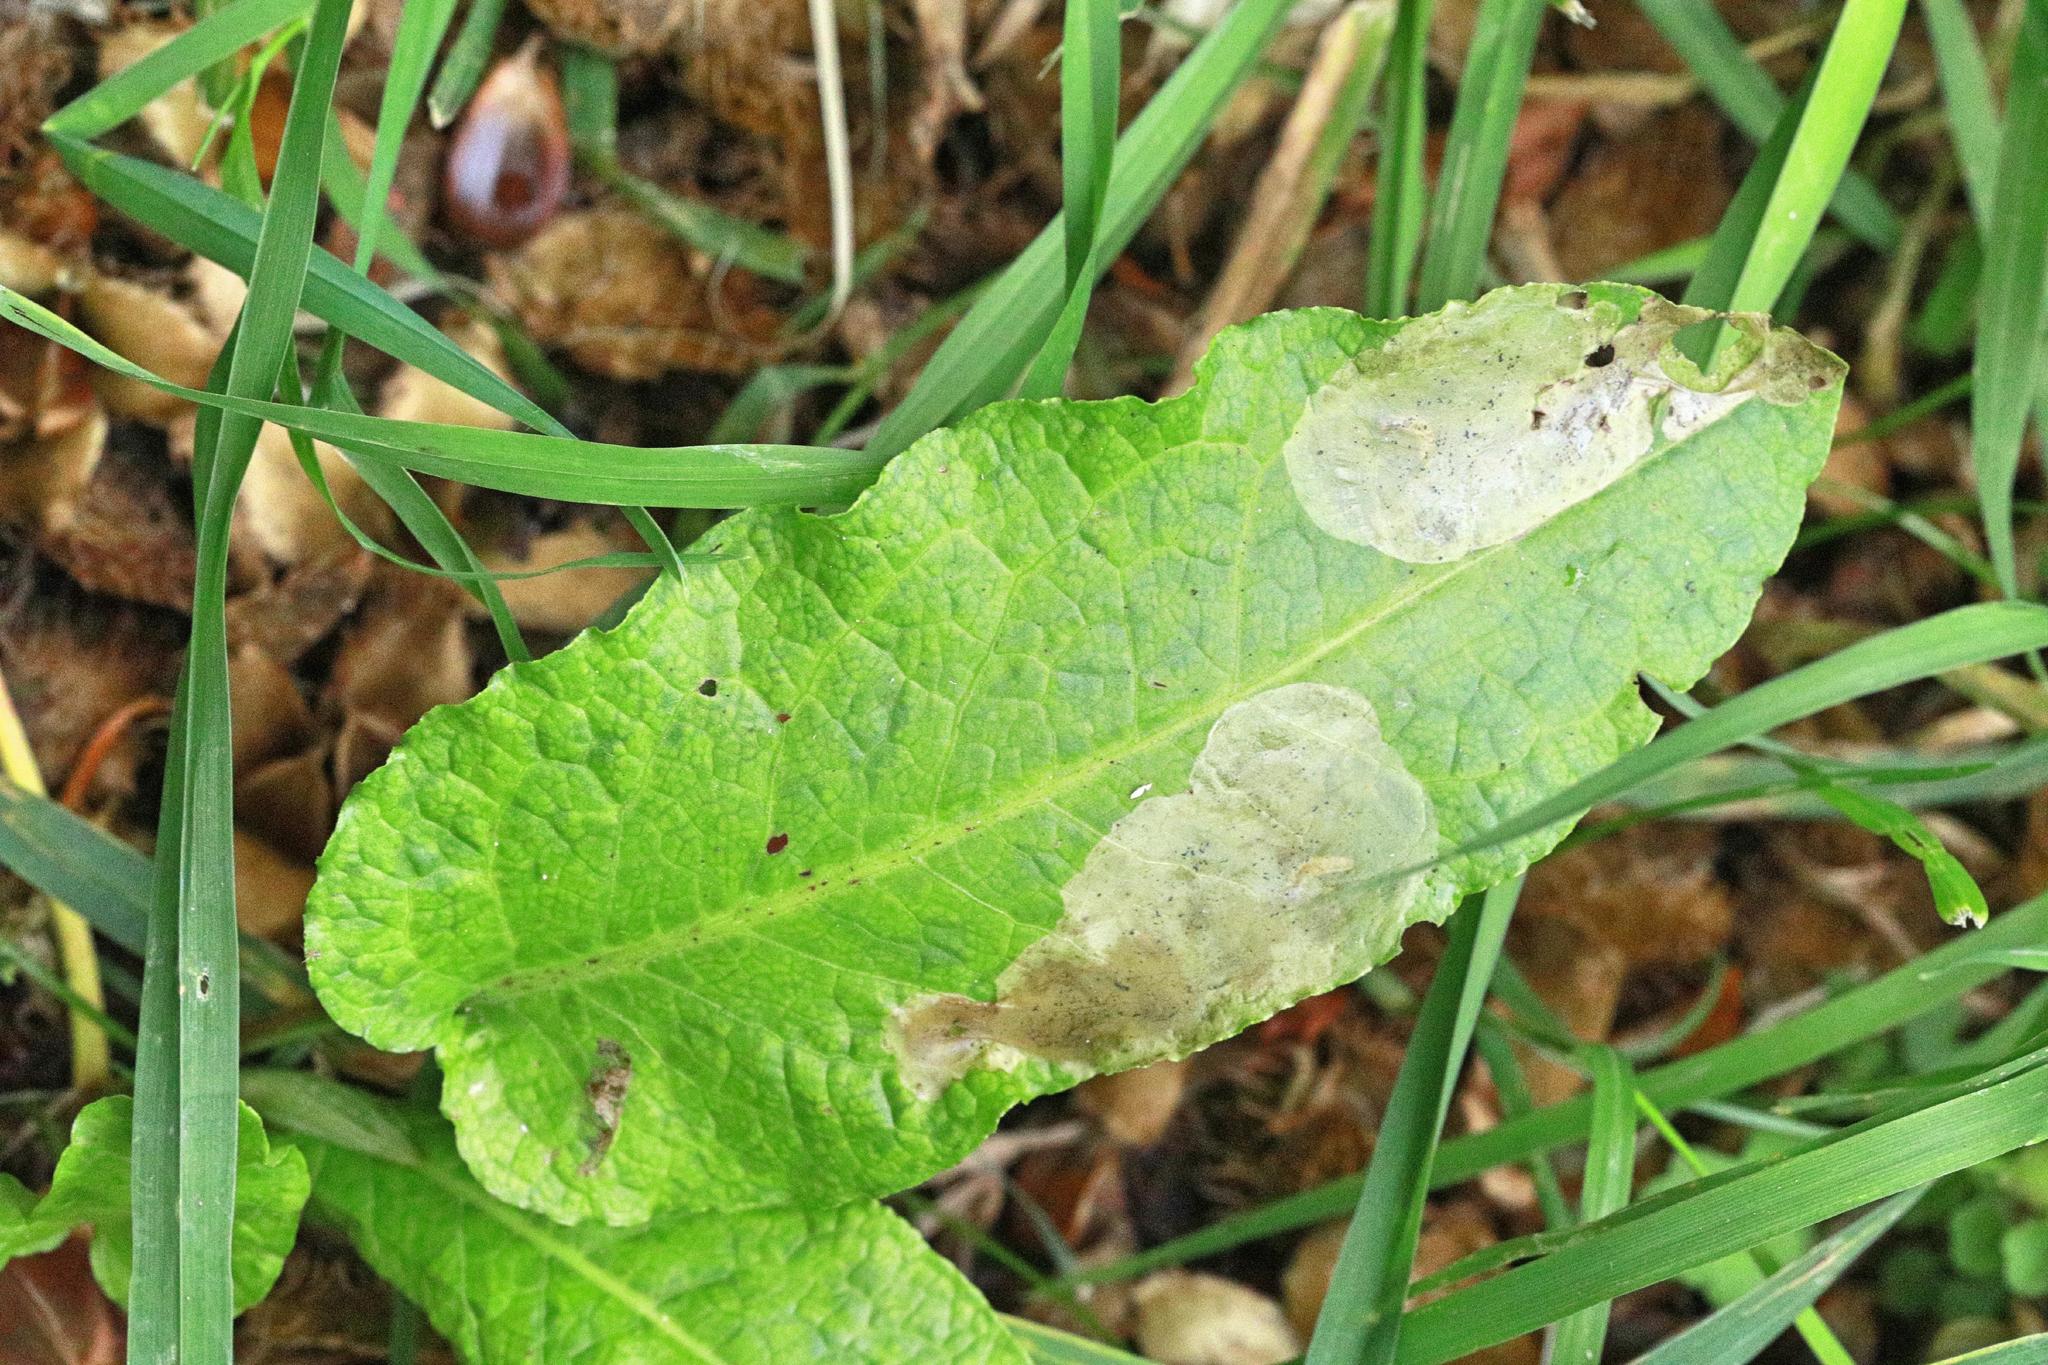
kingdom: Plantae
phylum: Tracheophyta
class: Magnoliopsida
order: Caryophyllales
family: Polygonaceae
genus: Rumex
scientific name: Rumex obtusifolius
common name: Bitter dock
